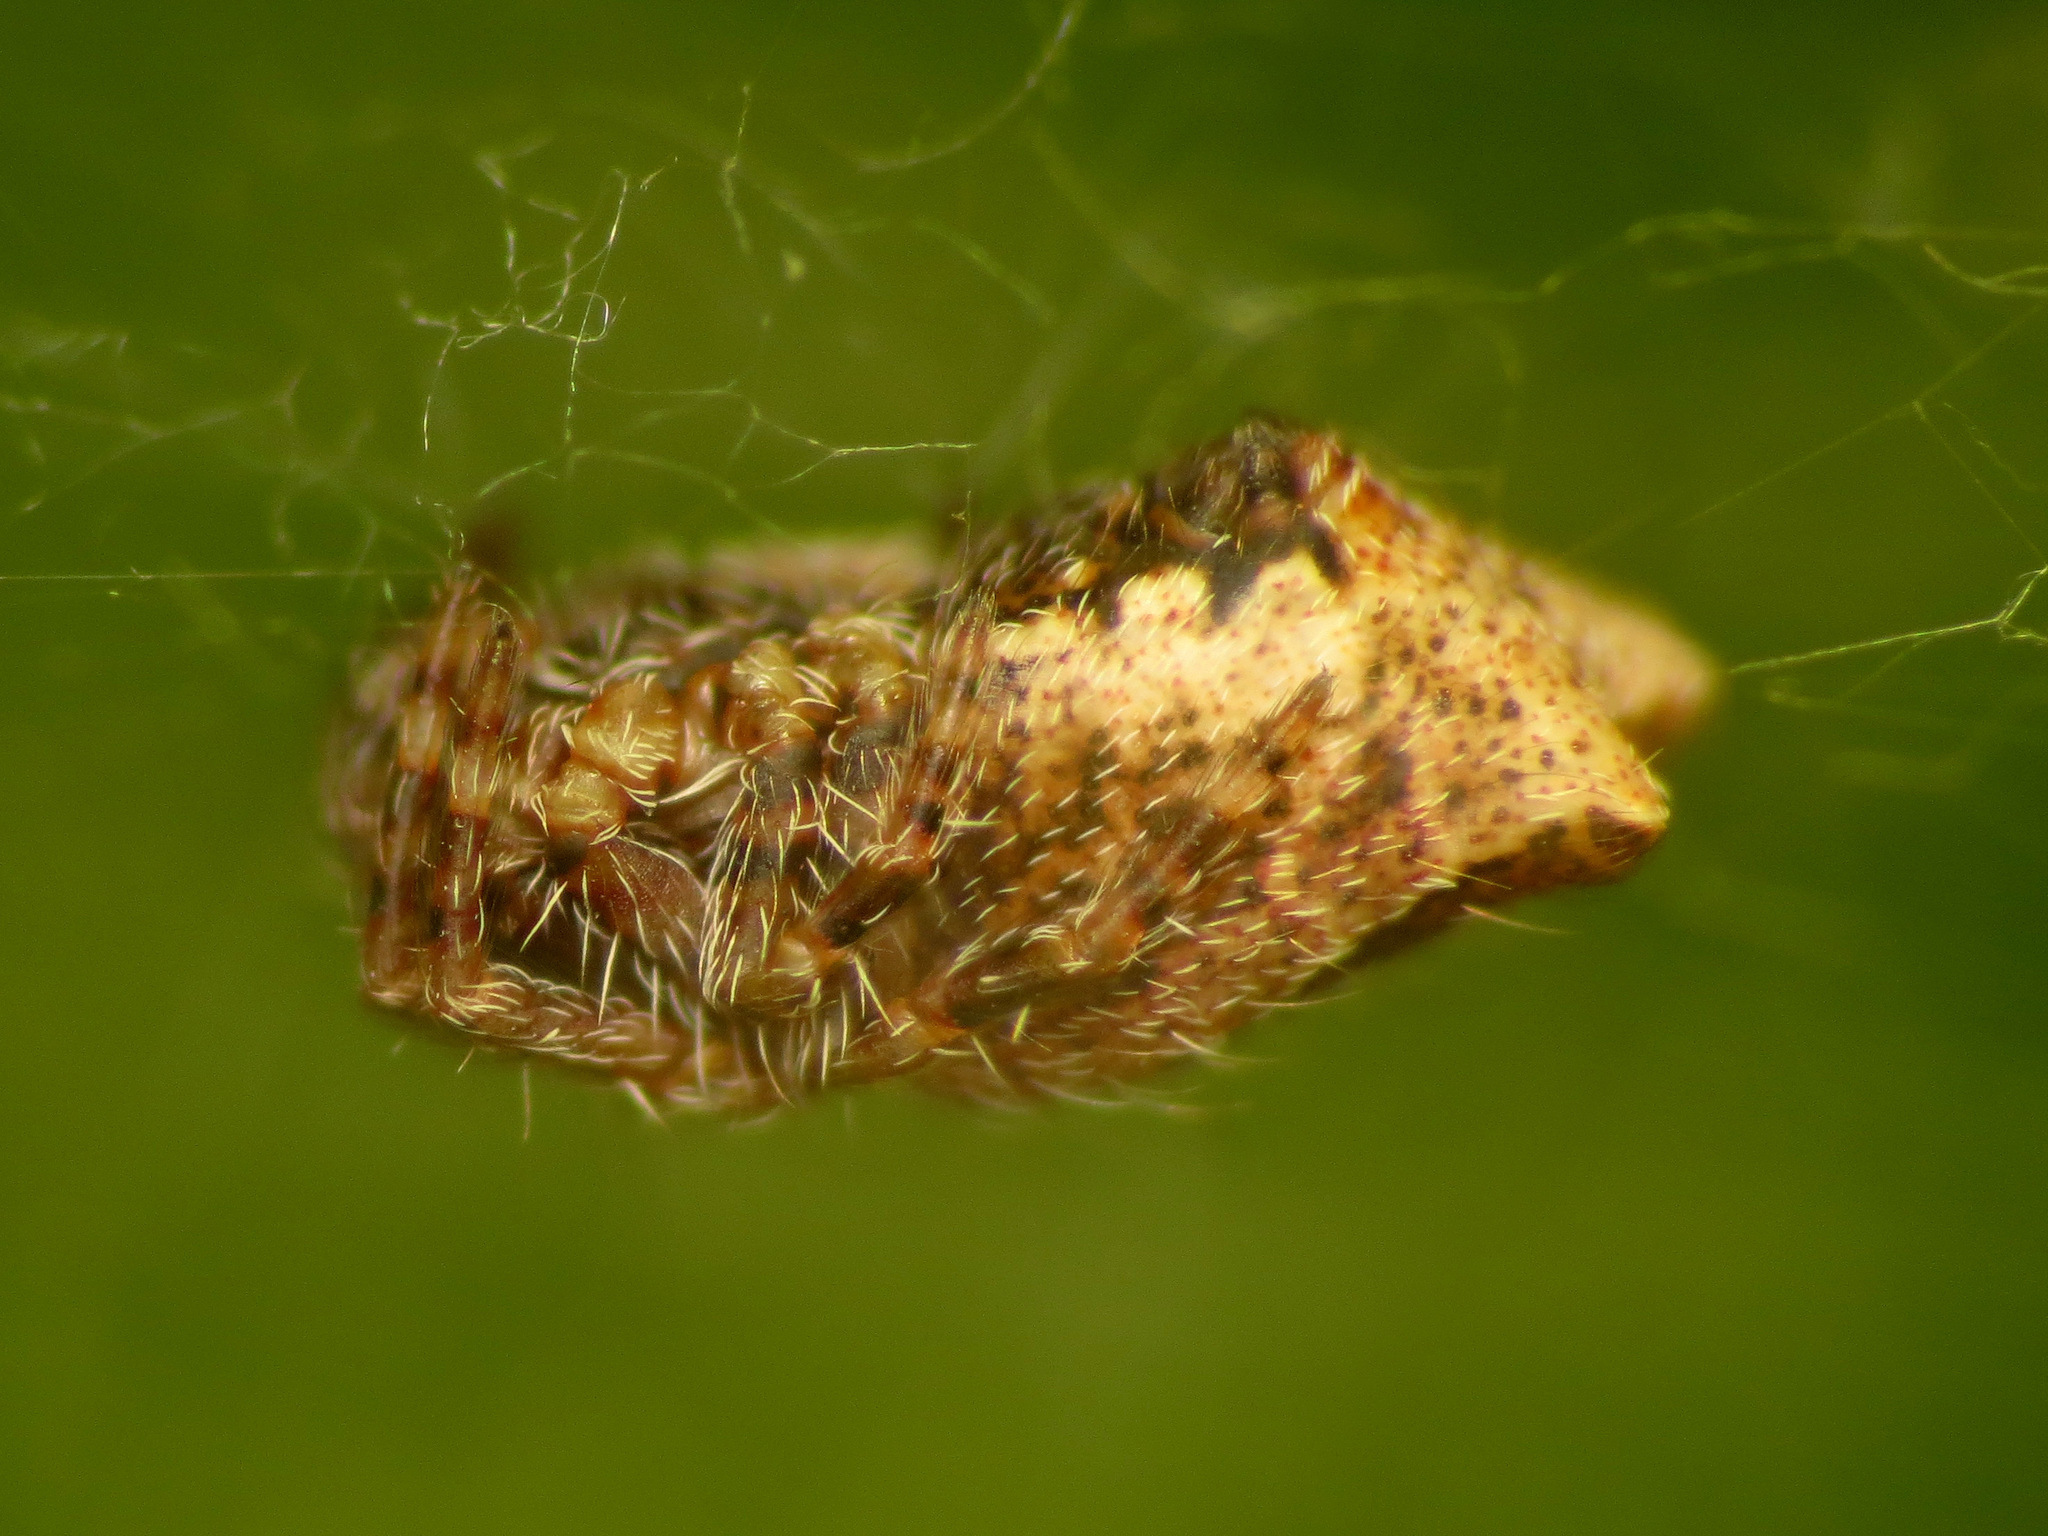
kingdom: Animalia
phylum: Arthropoda
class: Arachnida
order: Araneae
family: Araneidae
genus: Cyrtophora
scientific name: Cyrtophora citricola
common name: Orb weavers
